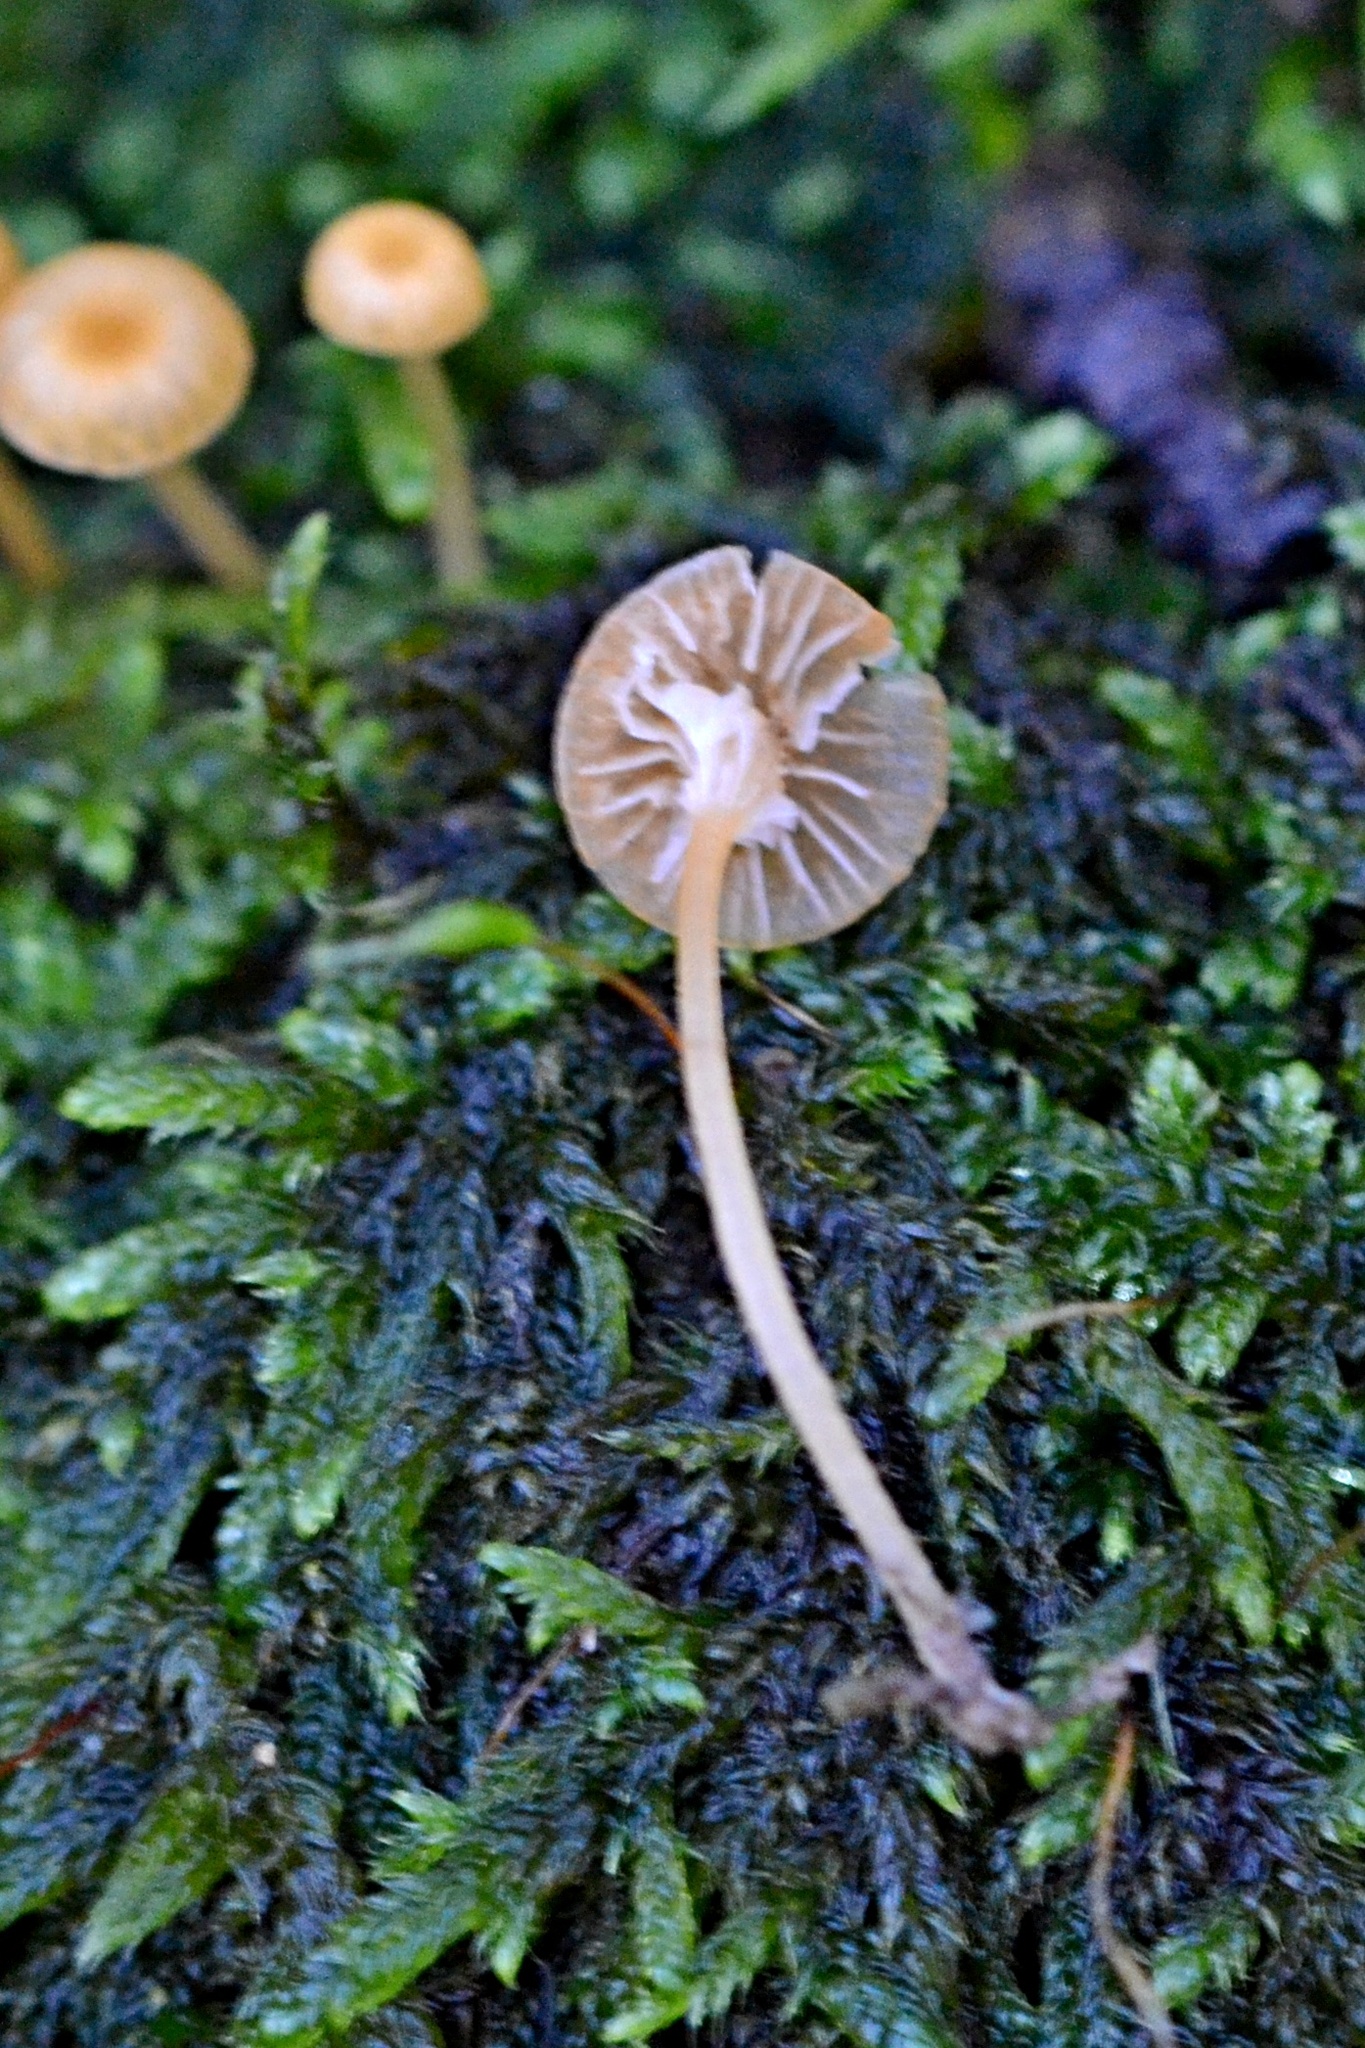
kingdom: Fungi
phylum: Basidiomycota
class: Agaricomycetes
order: Hymenochaetales
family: Rickenellaceae
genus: Rickenella
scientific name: Rickenella fibula
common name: Orange mosscap
